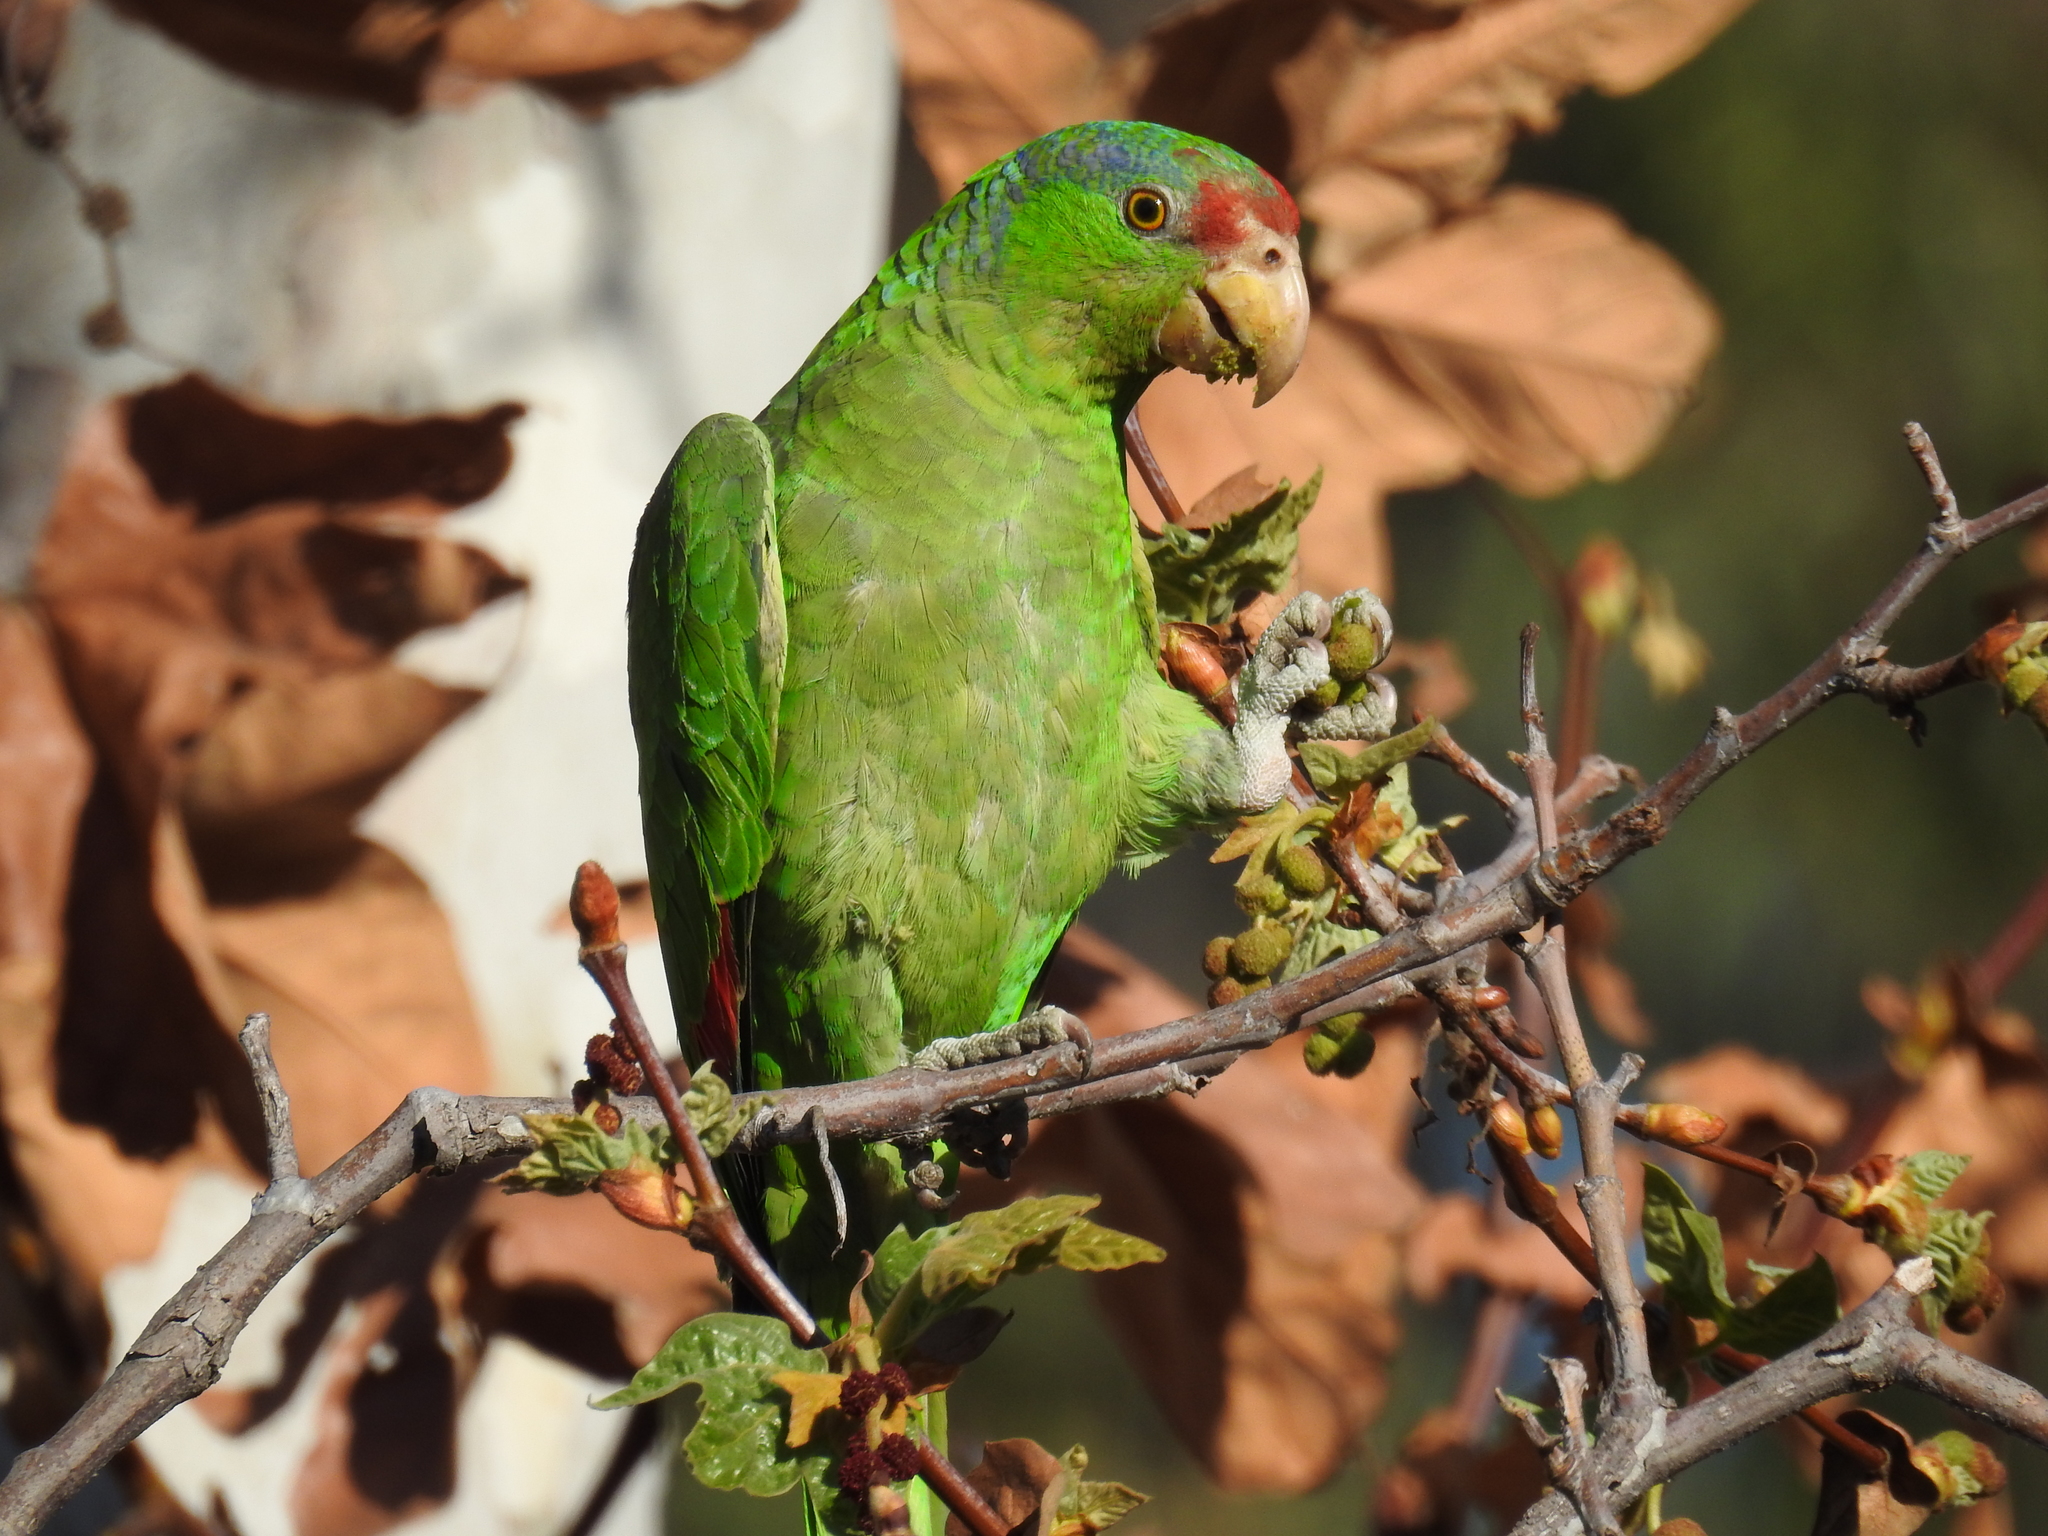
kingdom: Animalia
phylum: Chordata
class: Aves
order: Psittaciformes
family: Psittacidae
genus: Amazona
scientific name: Amazona viridigenalis
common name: Red-crowned amazon
